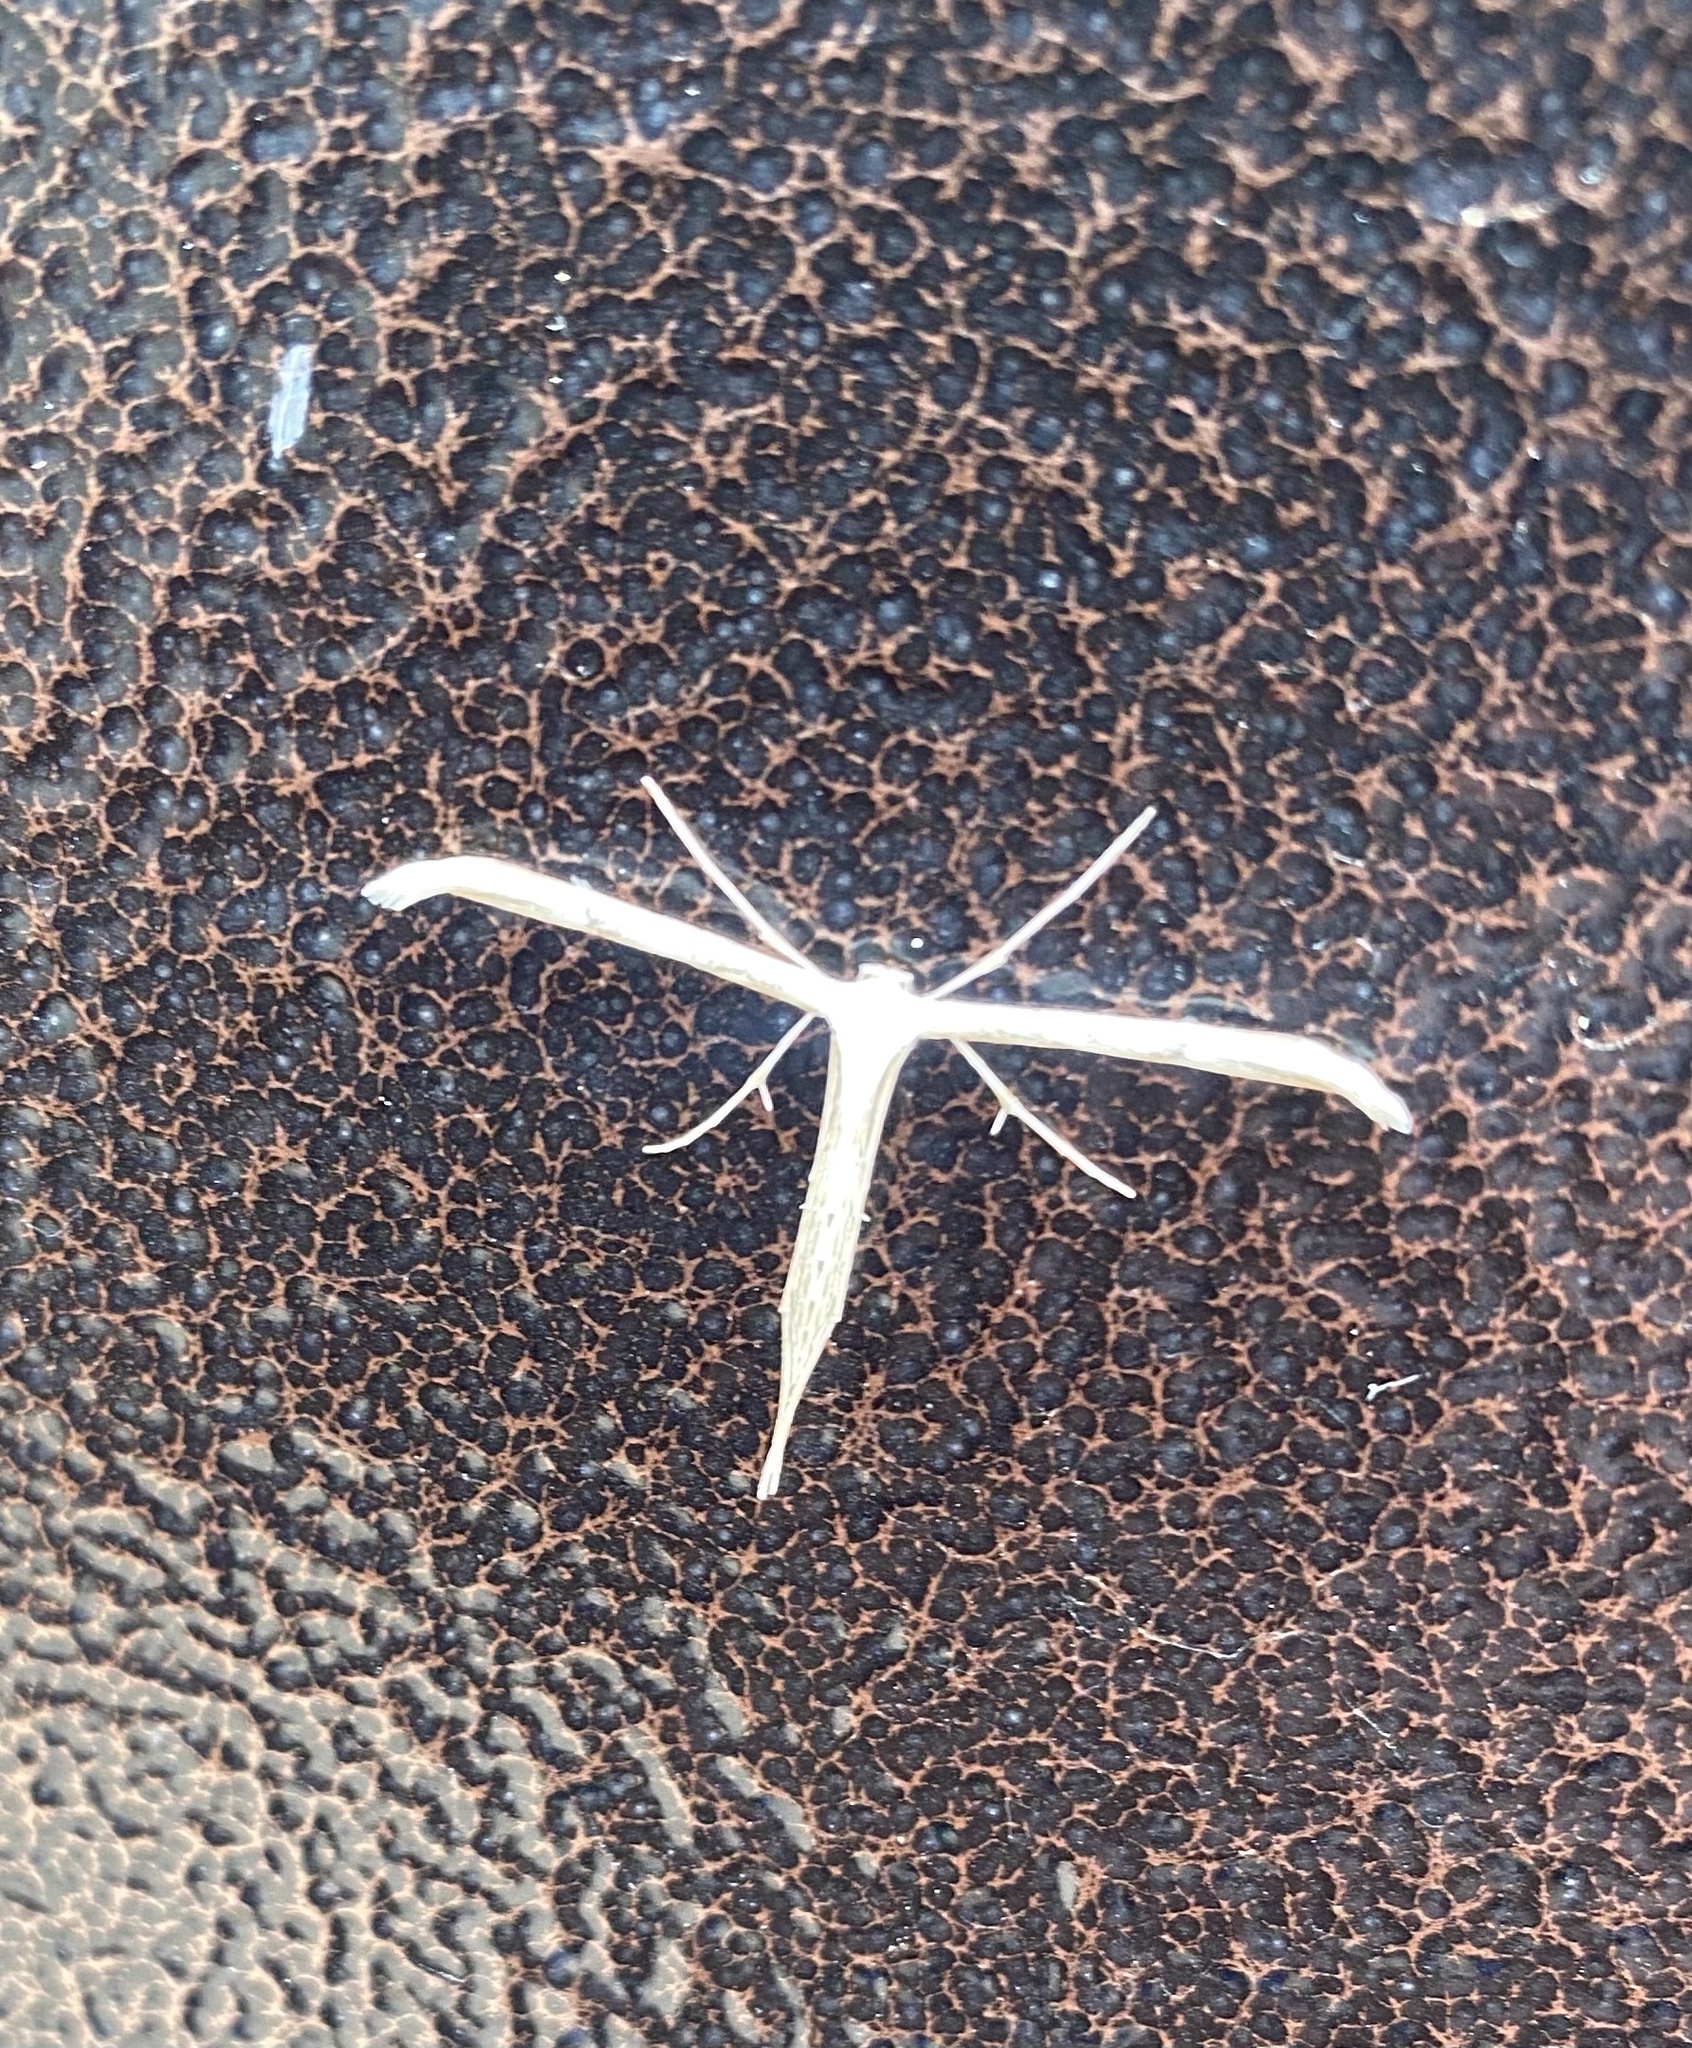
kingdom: Animalia
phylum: Arthropoda
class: Insecta
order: Lepidoptera
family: Pterophoridae
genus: Emmelina
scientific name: Emmelina monodactyla
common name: Common plume
